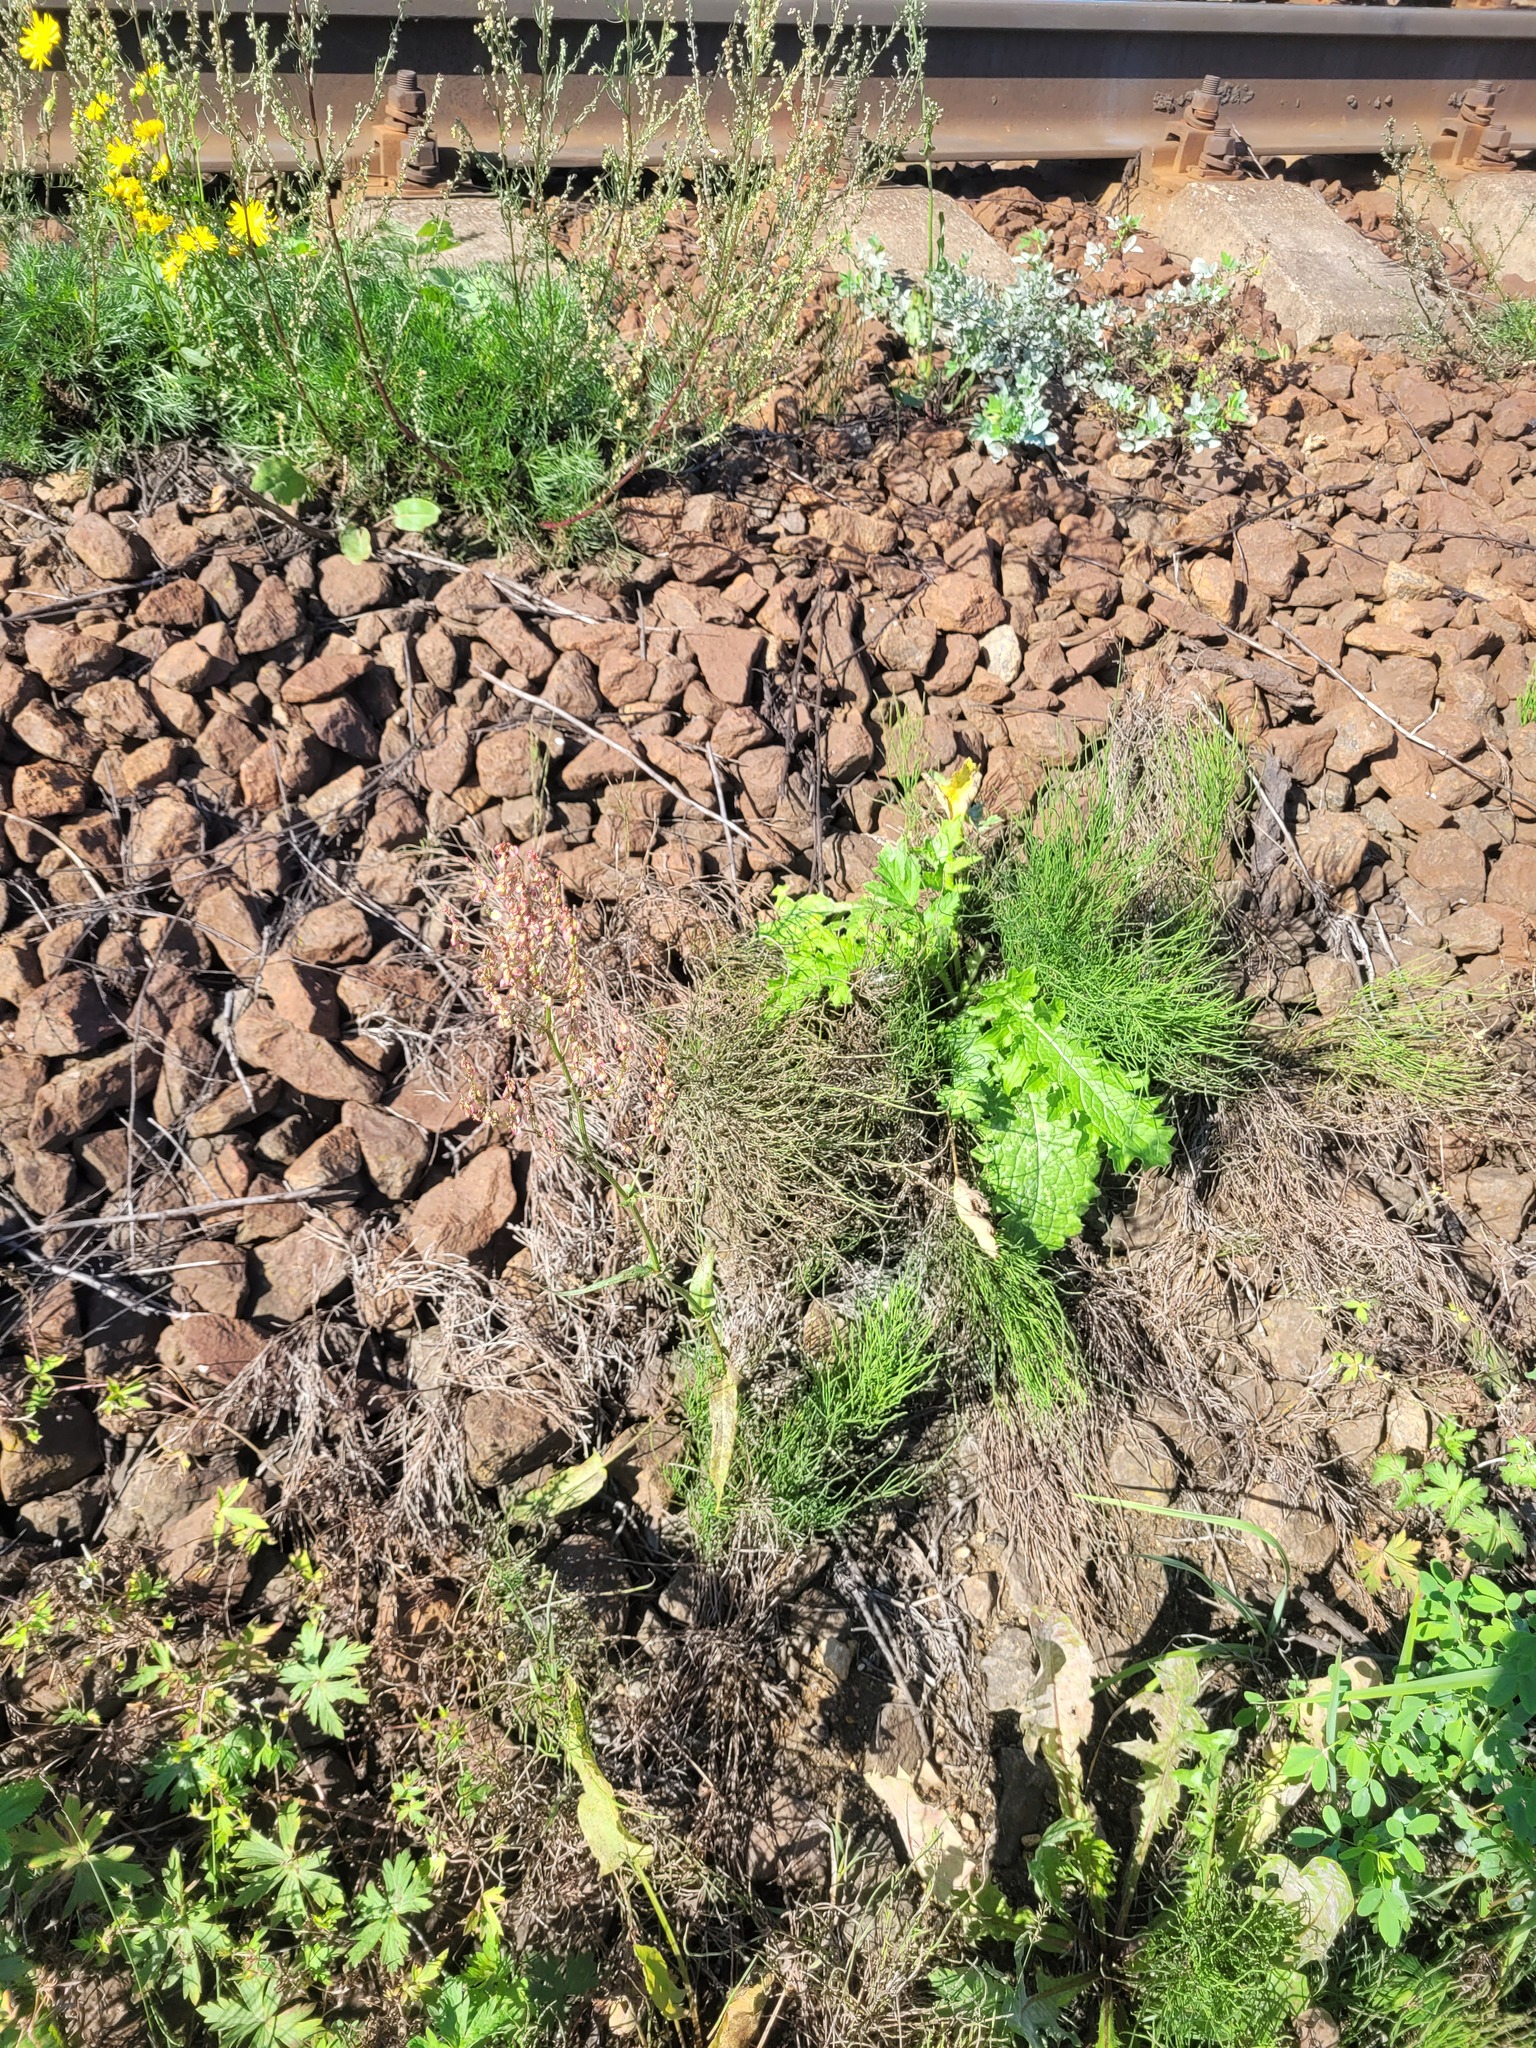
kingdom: Plantae
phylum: Tracheophyta
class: Polypodiopsida
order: Equisetales
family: Equisetaceae
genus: Equisetum
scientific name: Equisetum arvense
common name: Field horsetail
